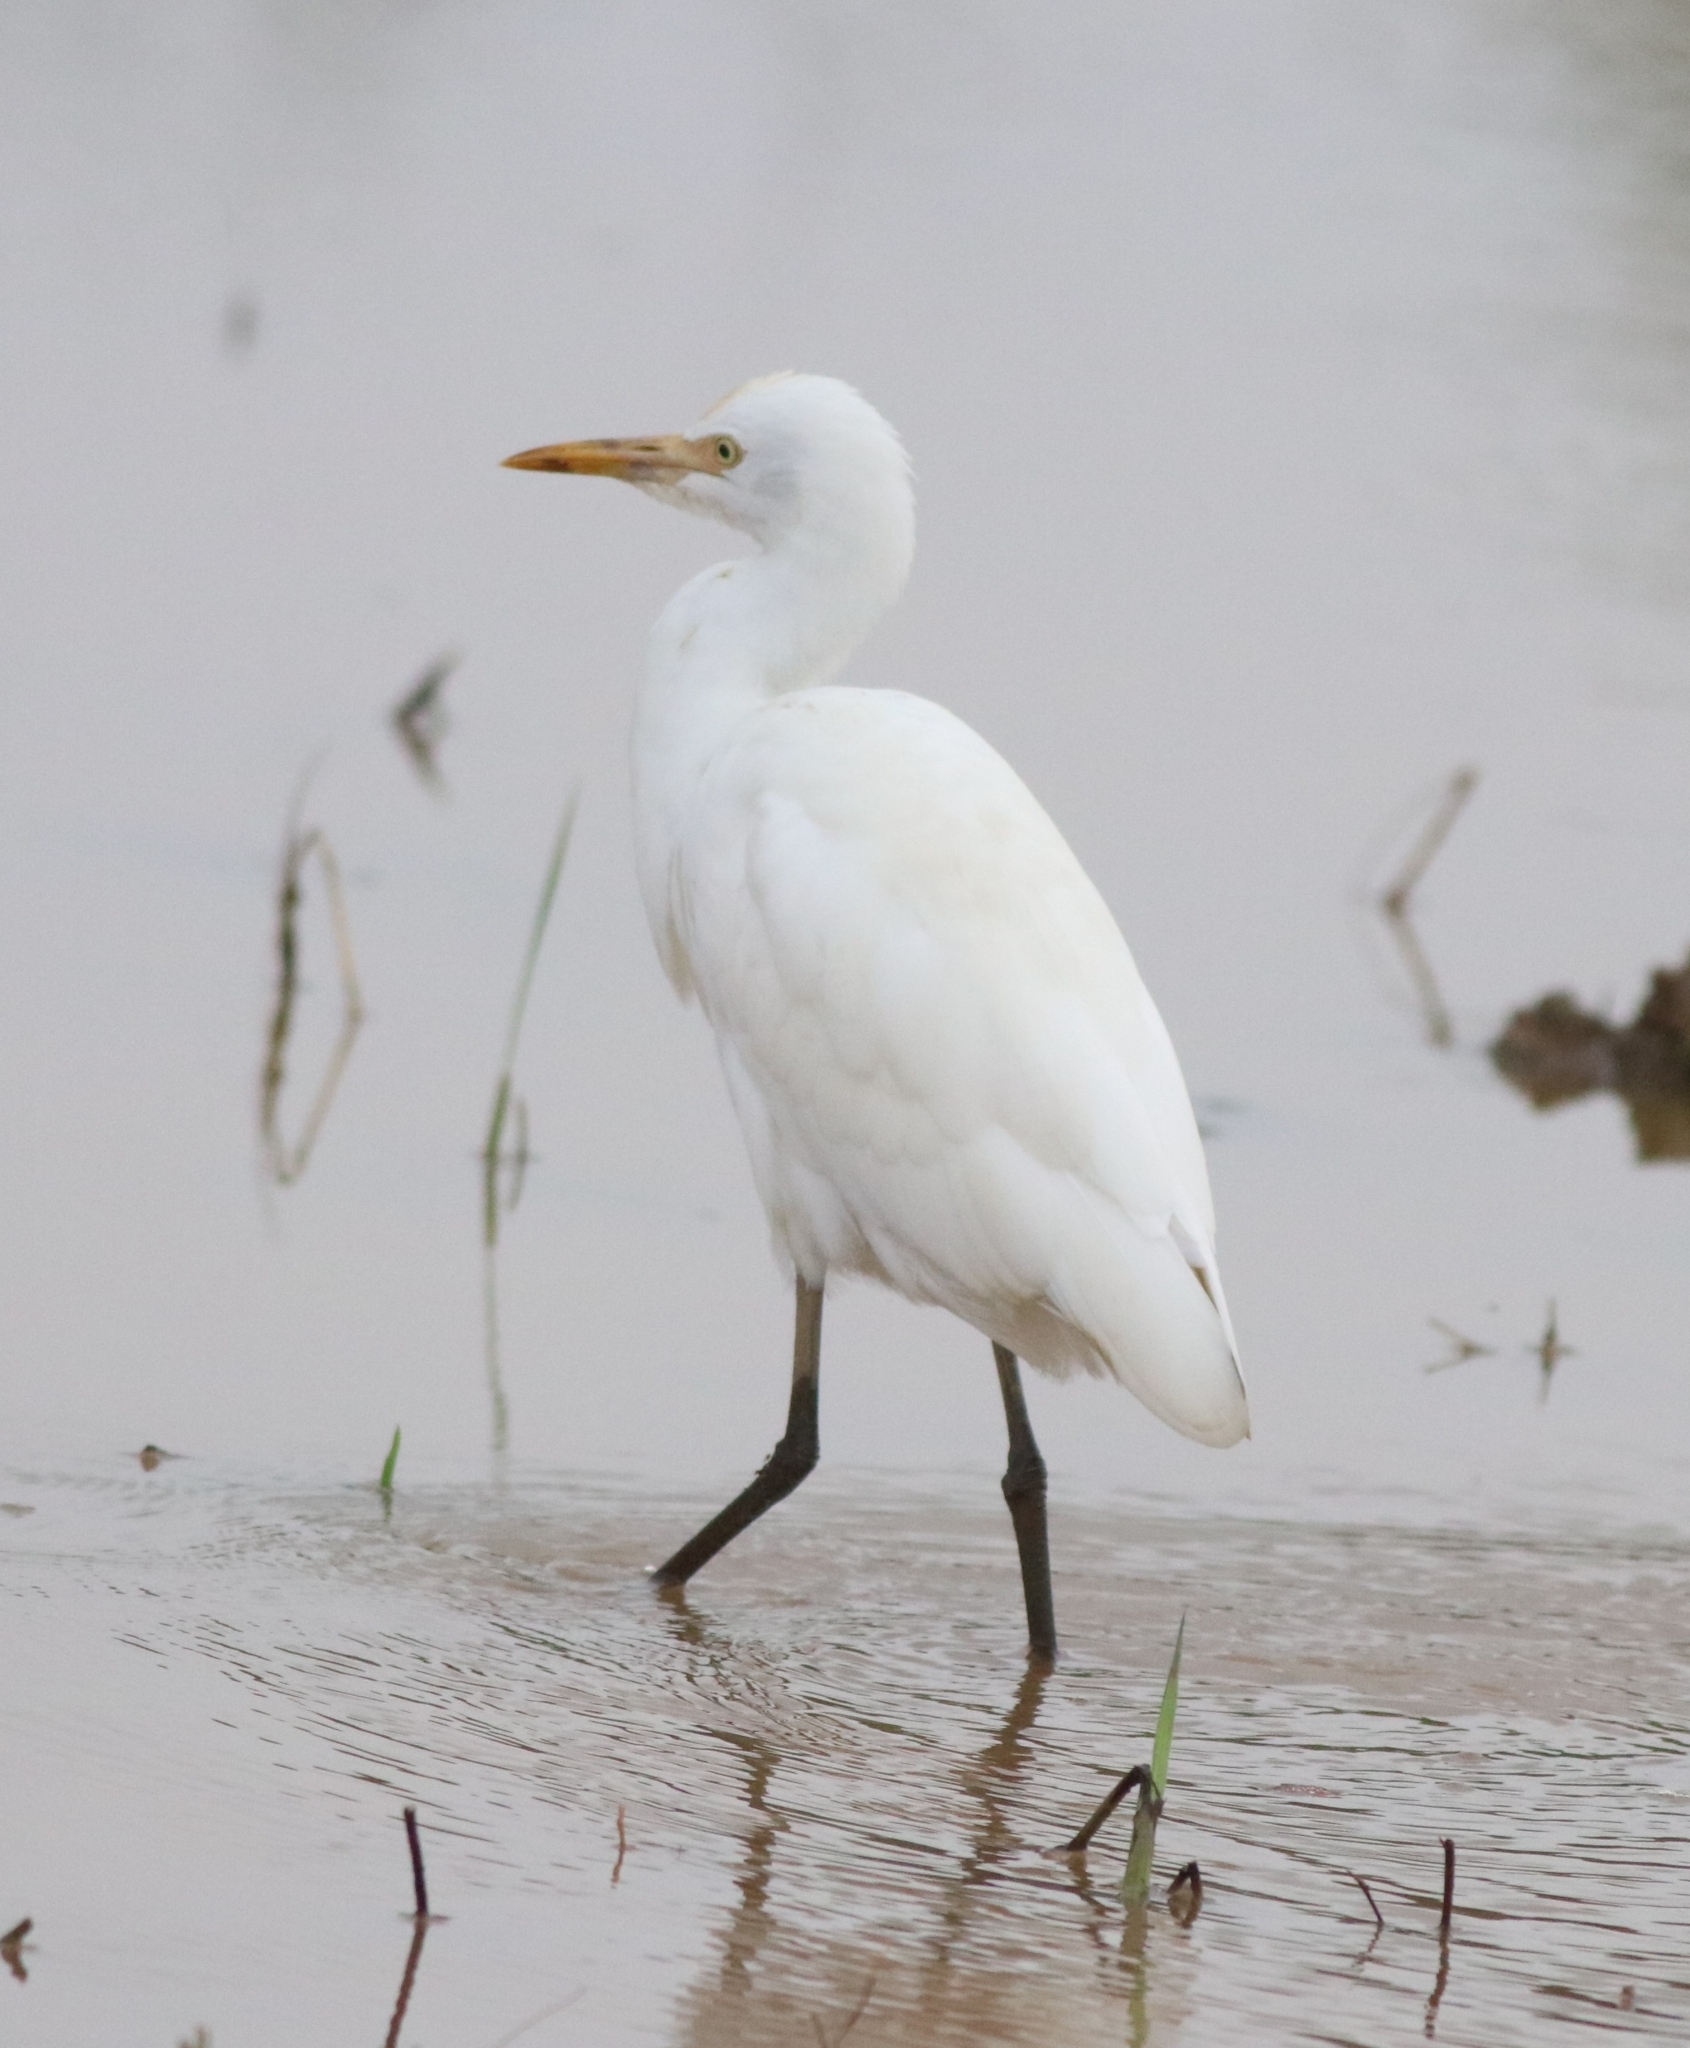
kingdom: Animalia
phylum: Chordata
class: Aves
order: Pelecaniformes
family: Ardeidae
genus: Bubulcus
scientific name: Bubulcus coromandus
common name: Eastern cattle egret
